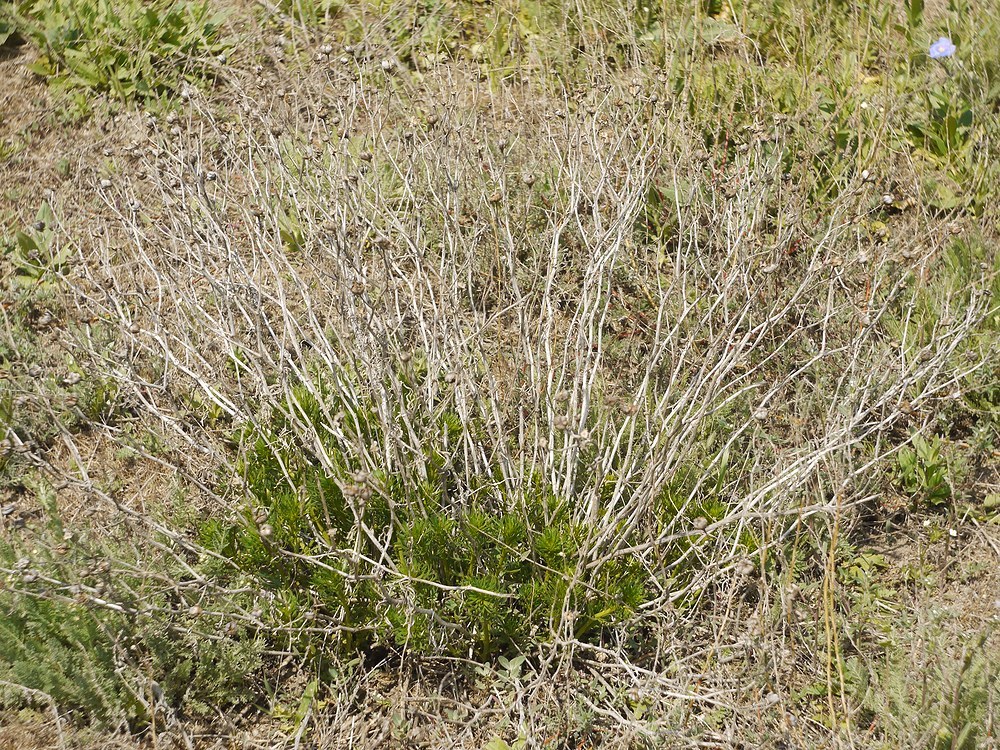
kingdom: Plantae
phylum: Tracheophyta
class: Magnoliopsida
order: Sapindales
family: Tetradiclidaceae
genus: Peganum
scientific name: Peganum harmala
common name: Harmal peganum
